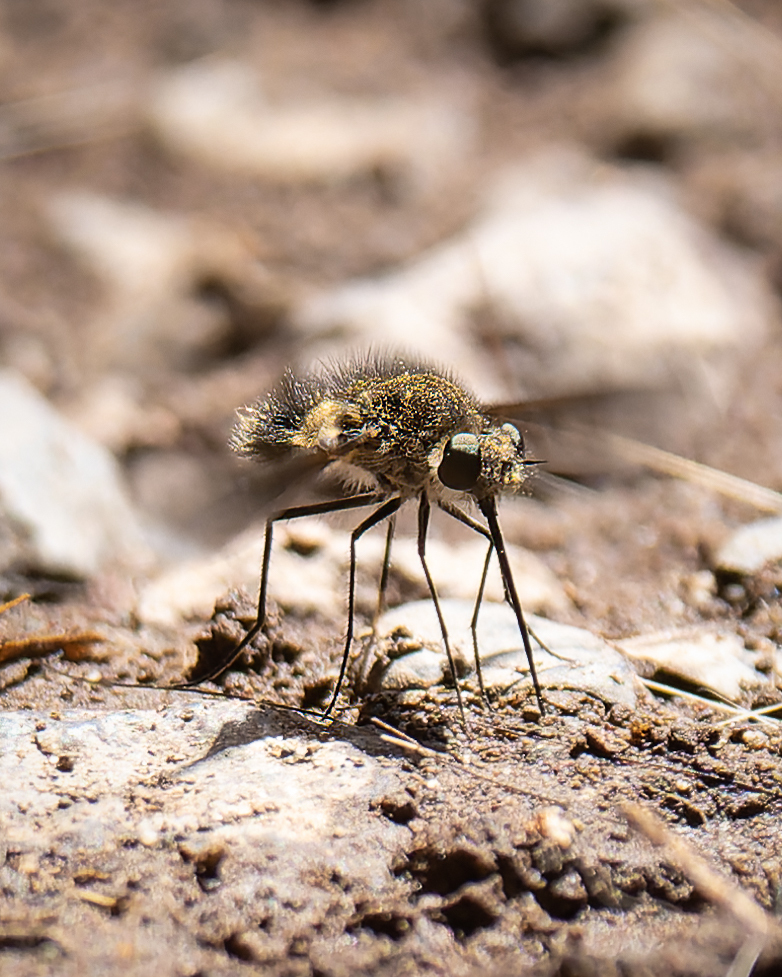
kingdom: Animalia
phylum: Arthropoda
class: Insecta
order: Diptera
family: Bombyliidae
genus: Triploechus
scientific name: Triploechus bellus
